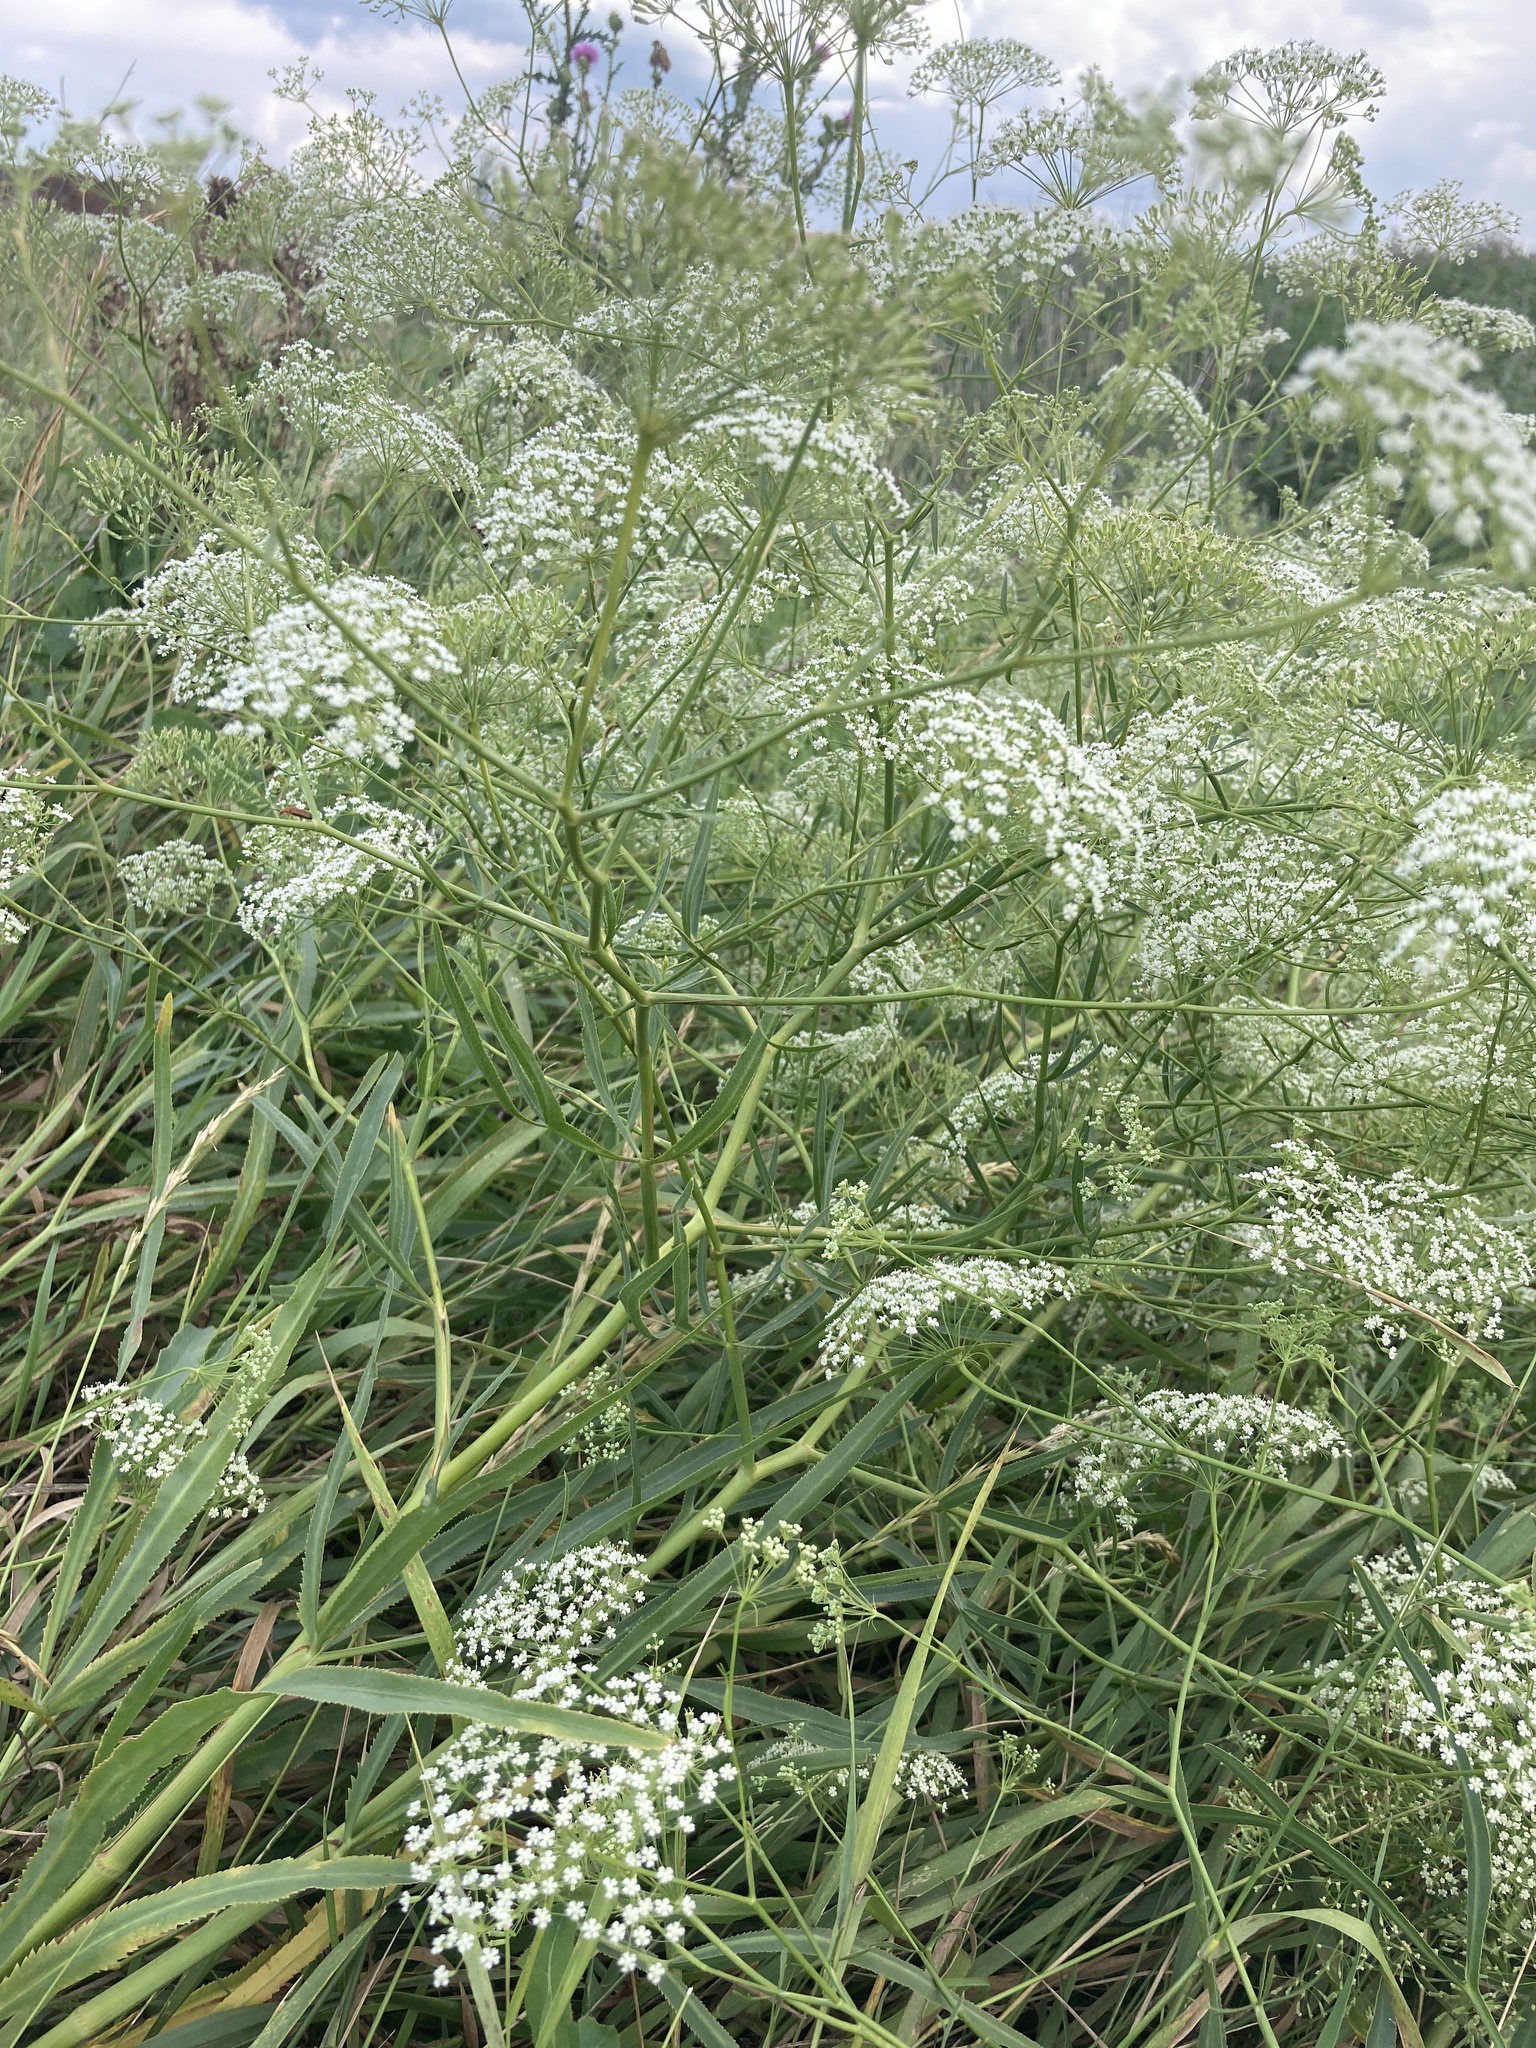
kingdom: Plantae
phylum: Tracheophyta
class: Magnoliopsida
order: Apiales
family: Apiaceae
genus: Falcaria
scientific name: Falcaria vulgaris
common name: Longleaf
